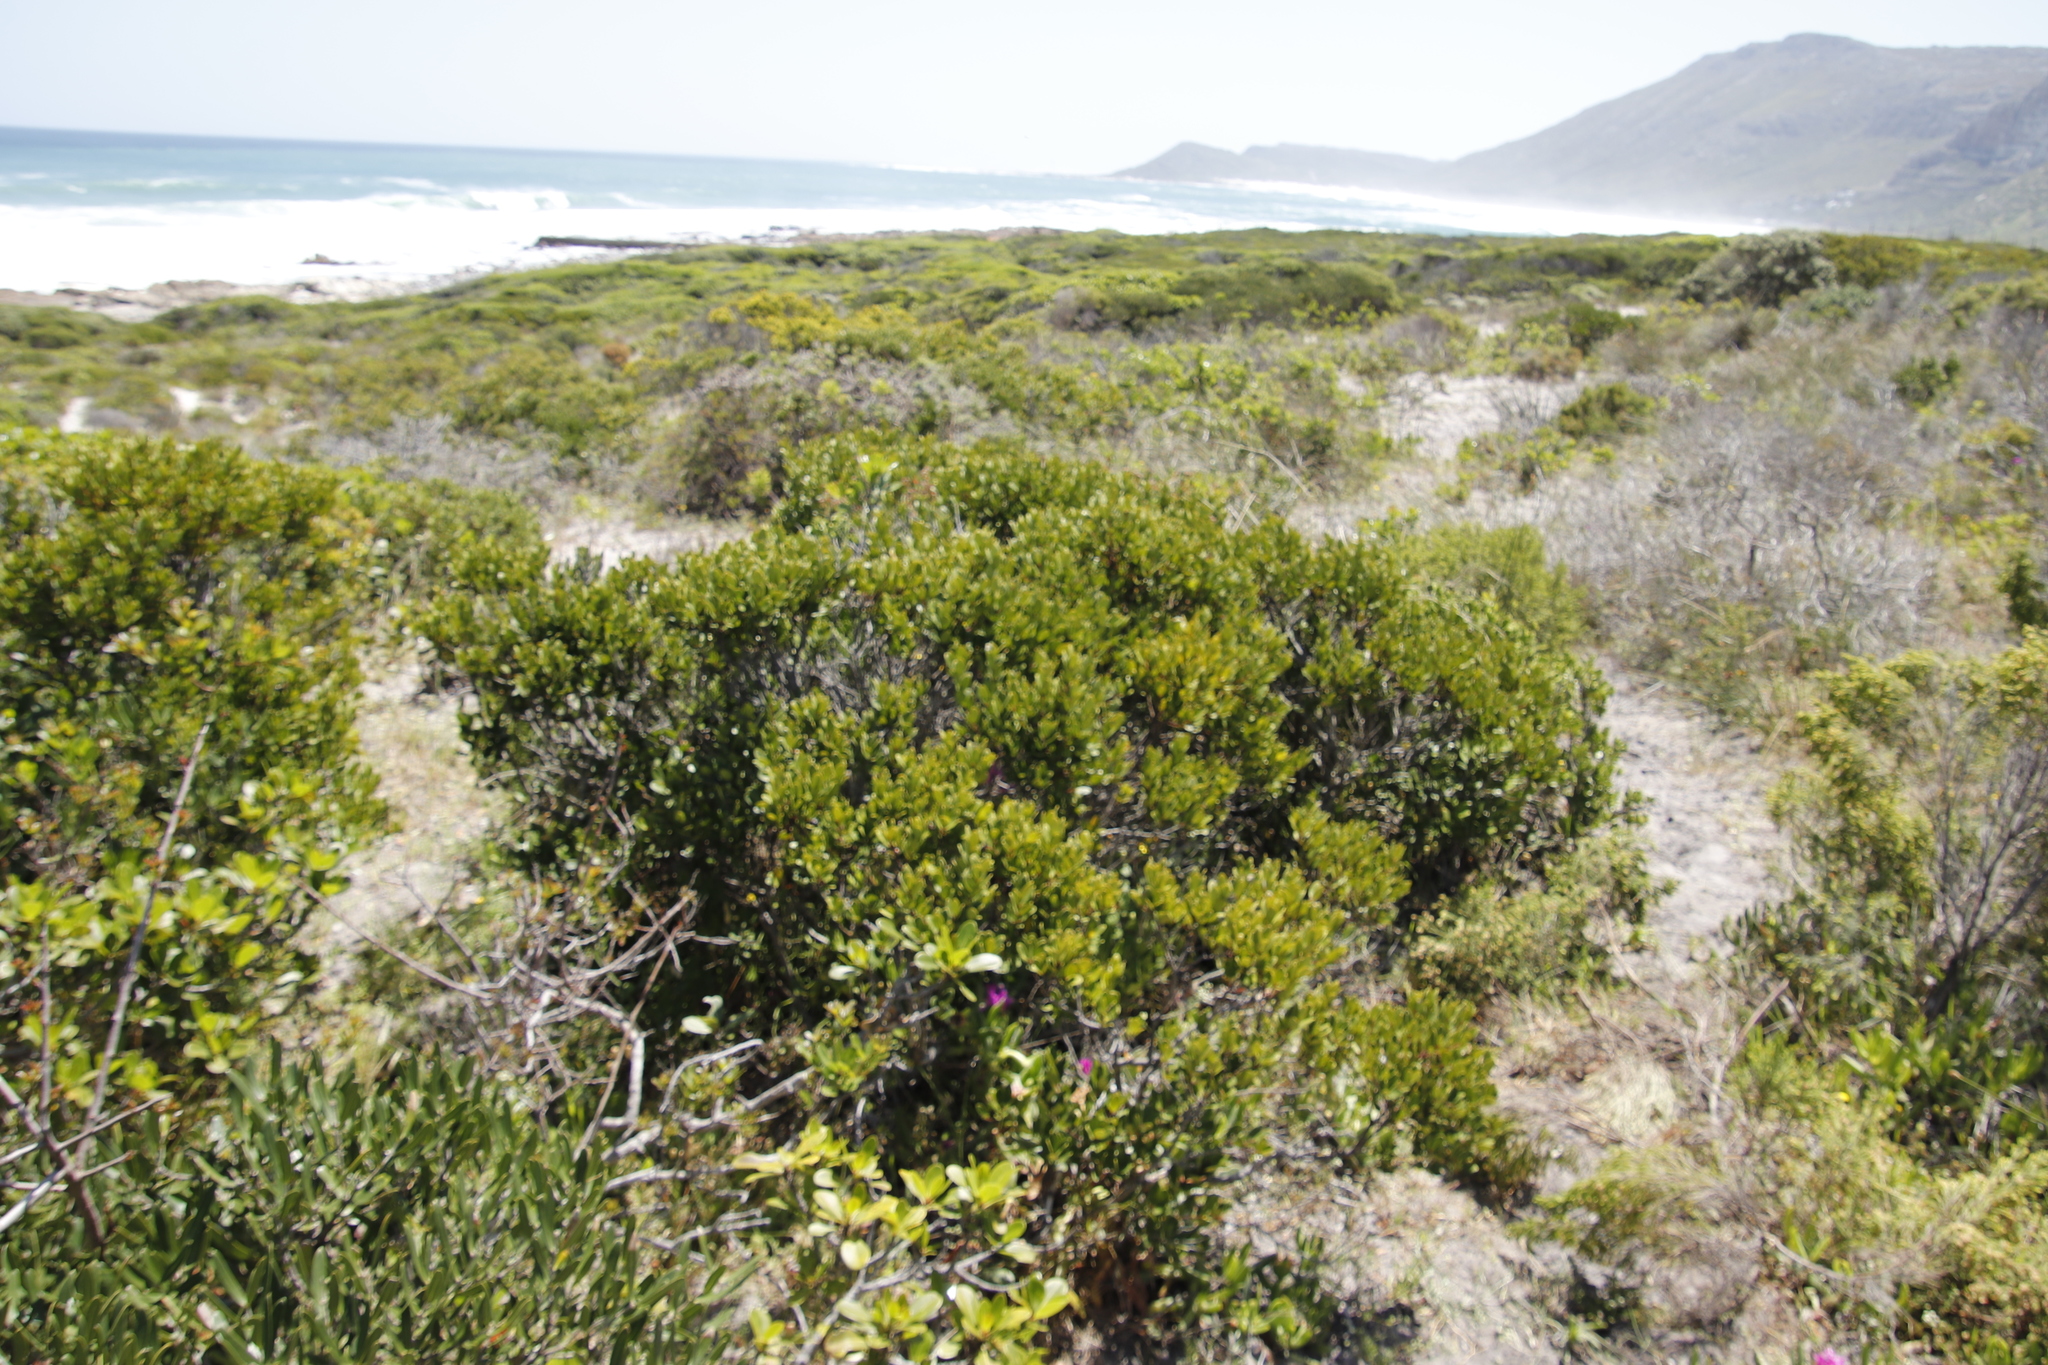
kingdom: Plantae
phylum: Tracheophyta
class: Magnoliopsida
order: Santalales
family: Santalaceae
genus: Osyris
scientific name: Osyris compressa
